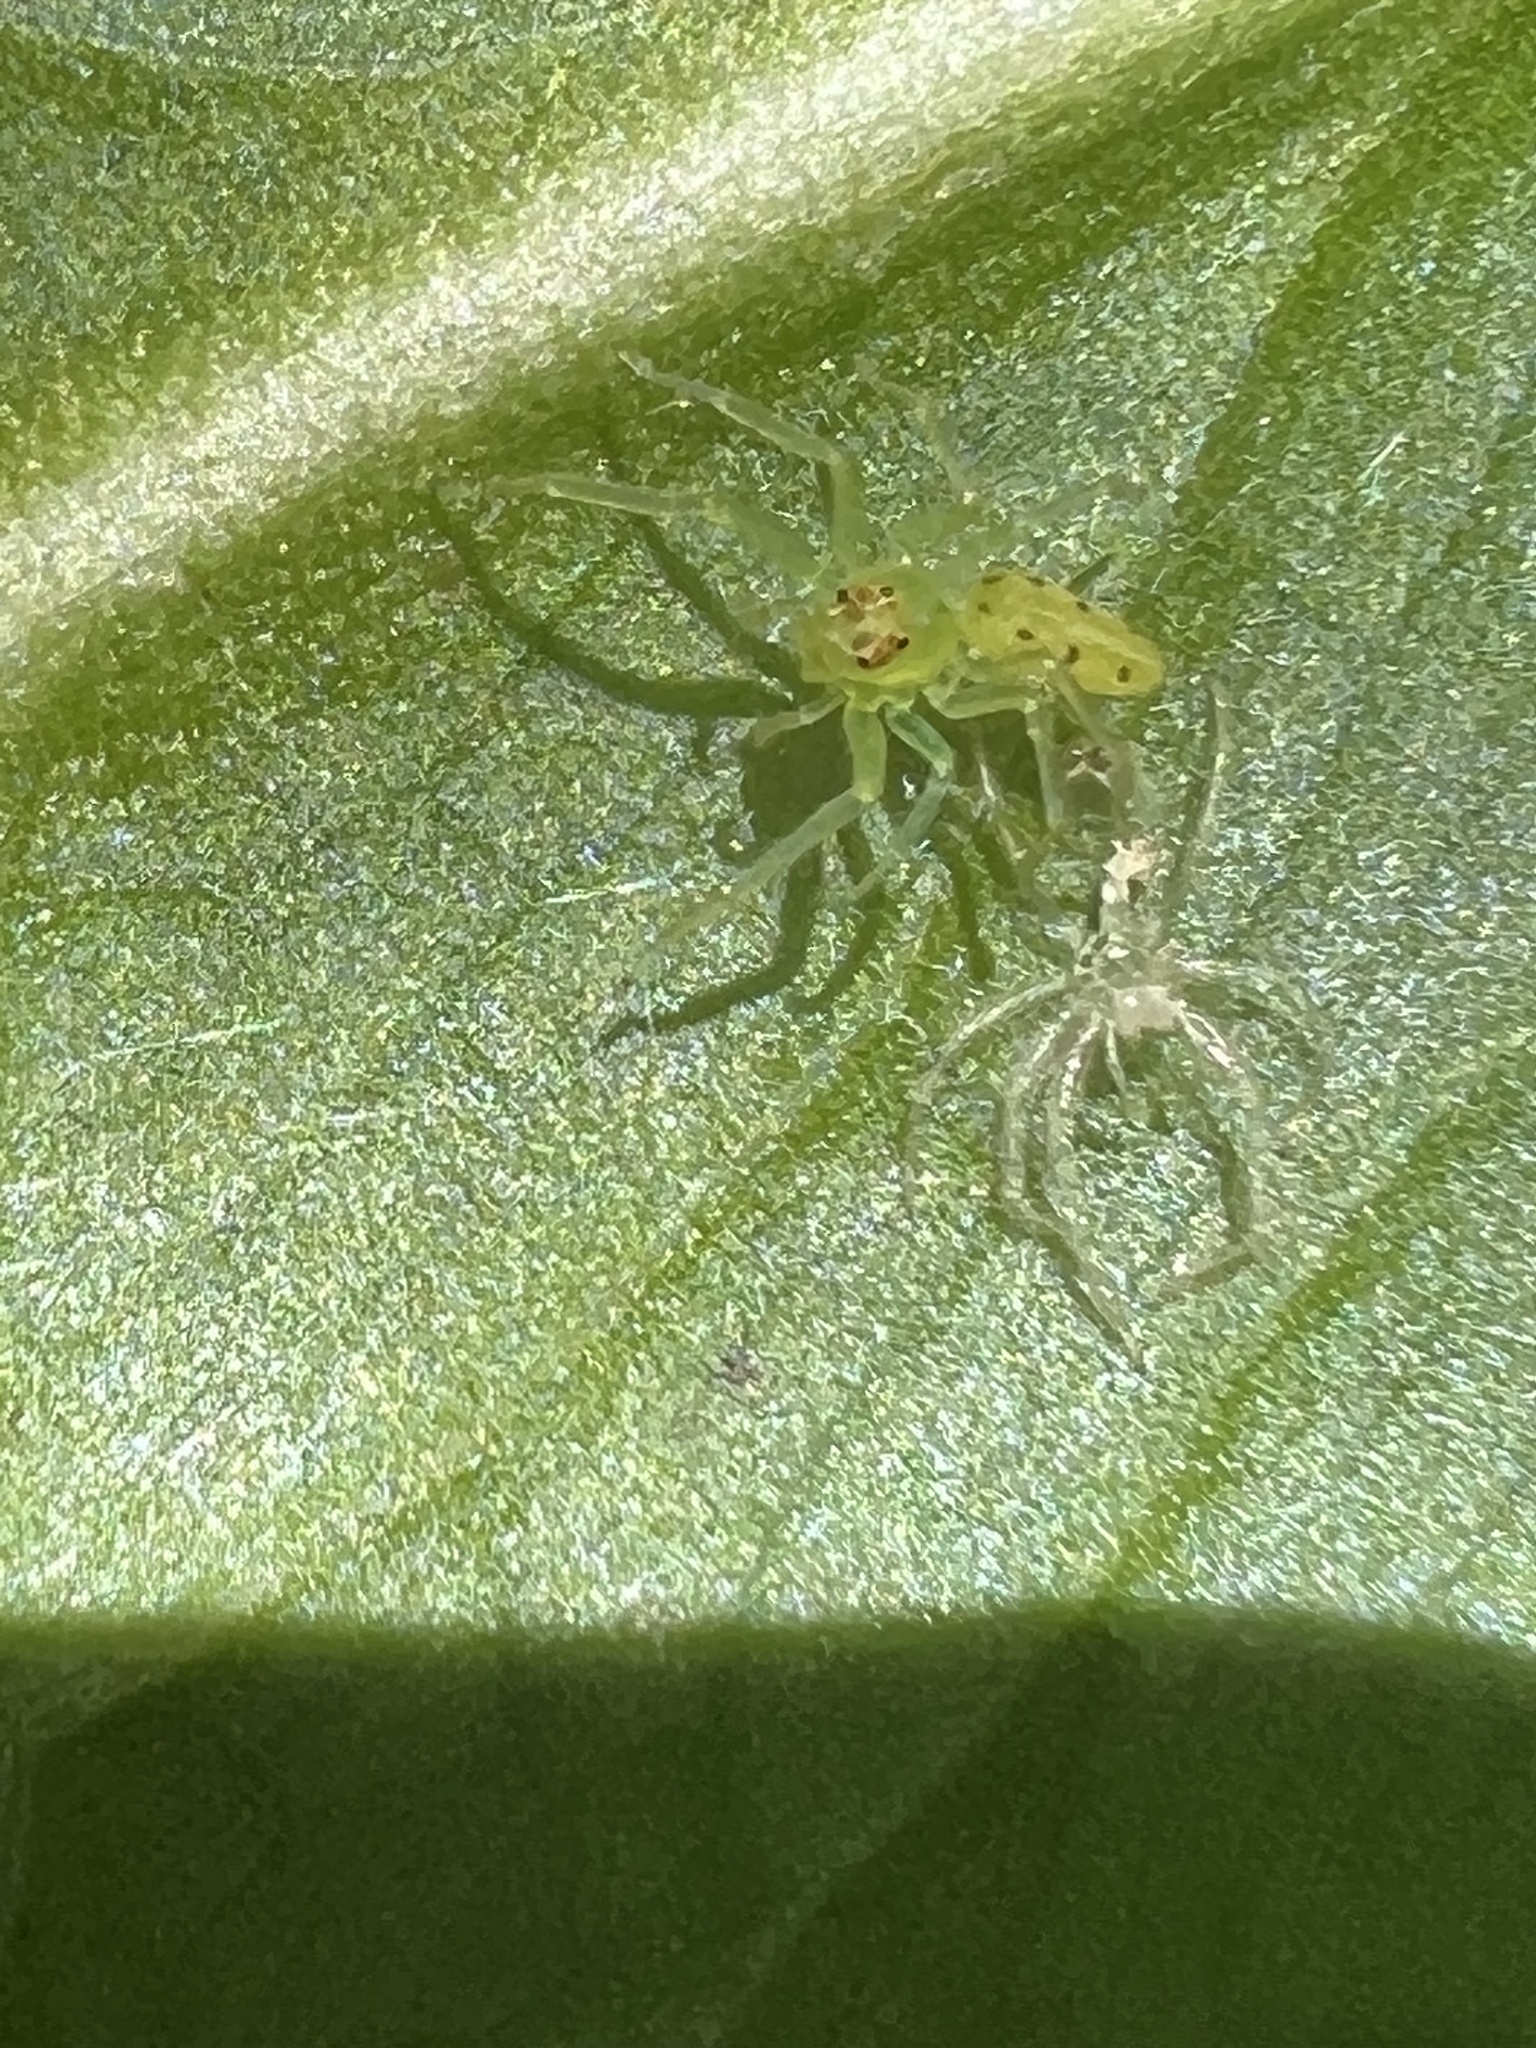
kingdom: Animalia
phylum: Arthropoda
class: Arachnida
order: Araneae
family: Salticidae
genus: Lyssomanes
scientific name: Lyssomanes viridis
